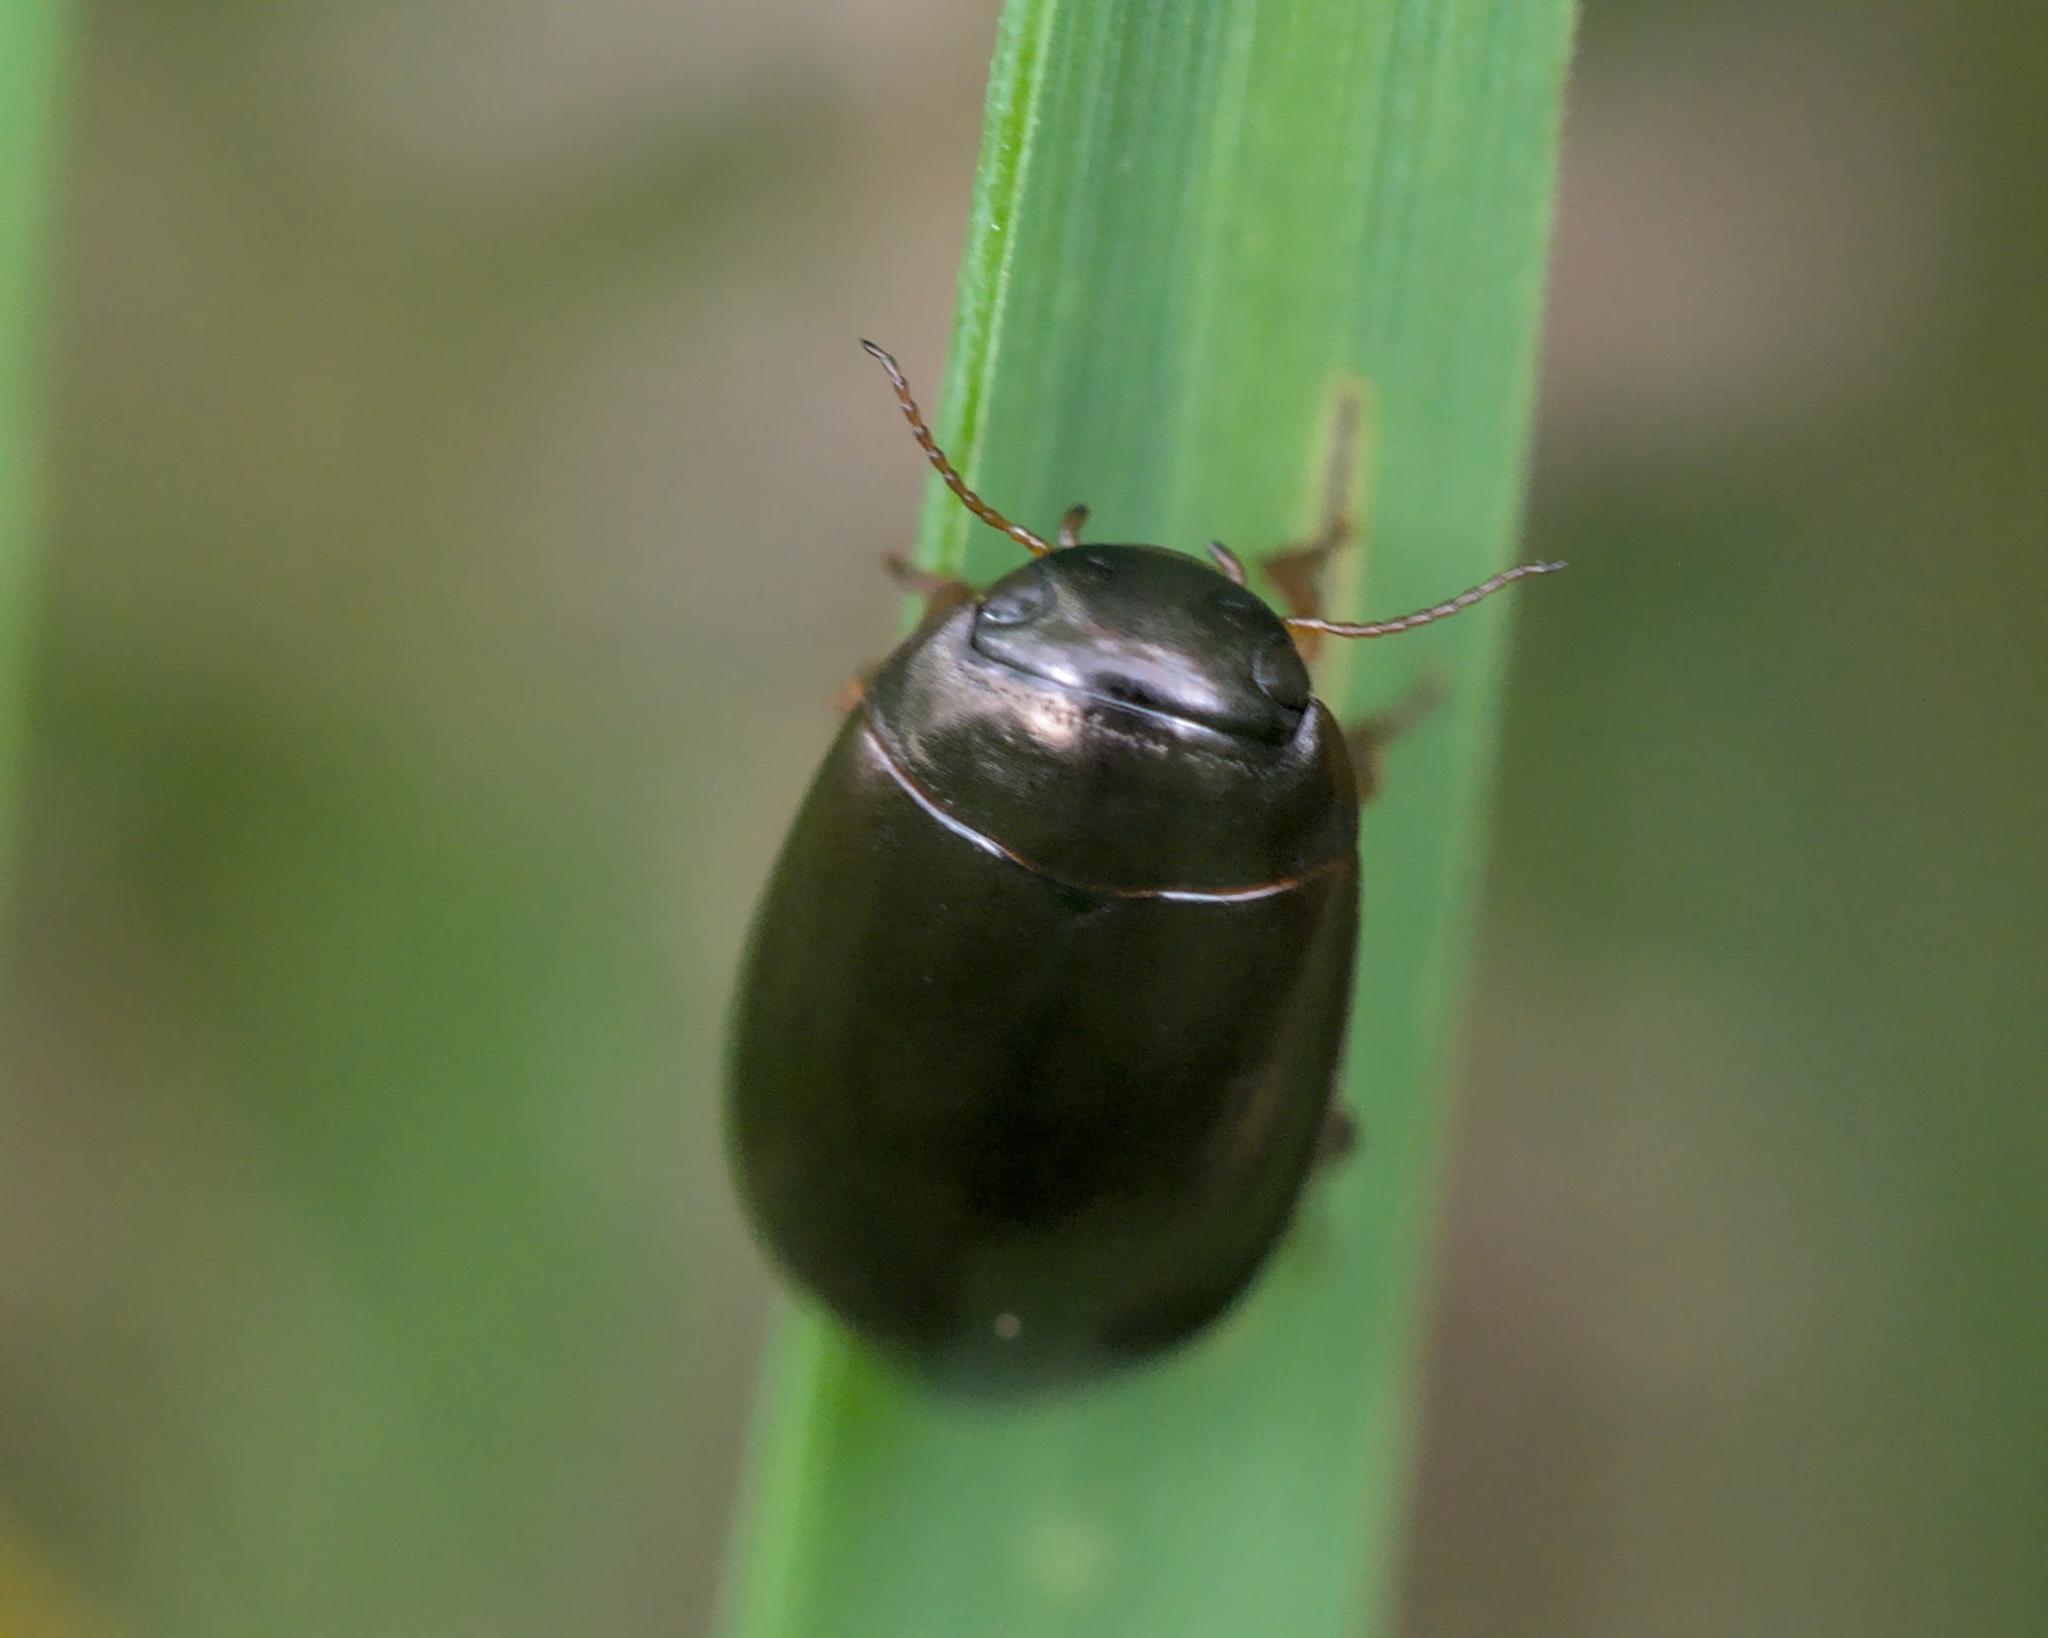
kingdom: Animalia
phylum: Arthropoda
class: Insecta
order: Coleoptera
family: Chrysomelidae
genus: Chrysolina
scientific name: Chrysolina bankii
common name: Leaf beetle
